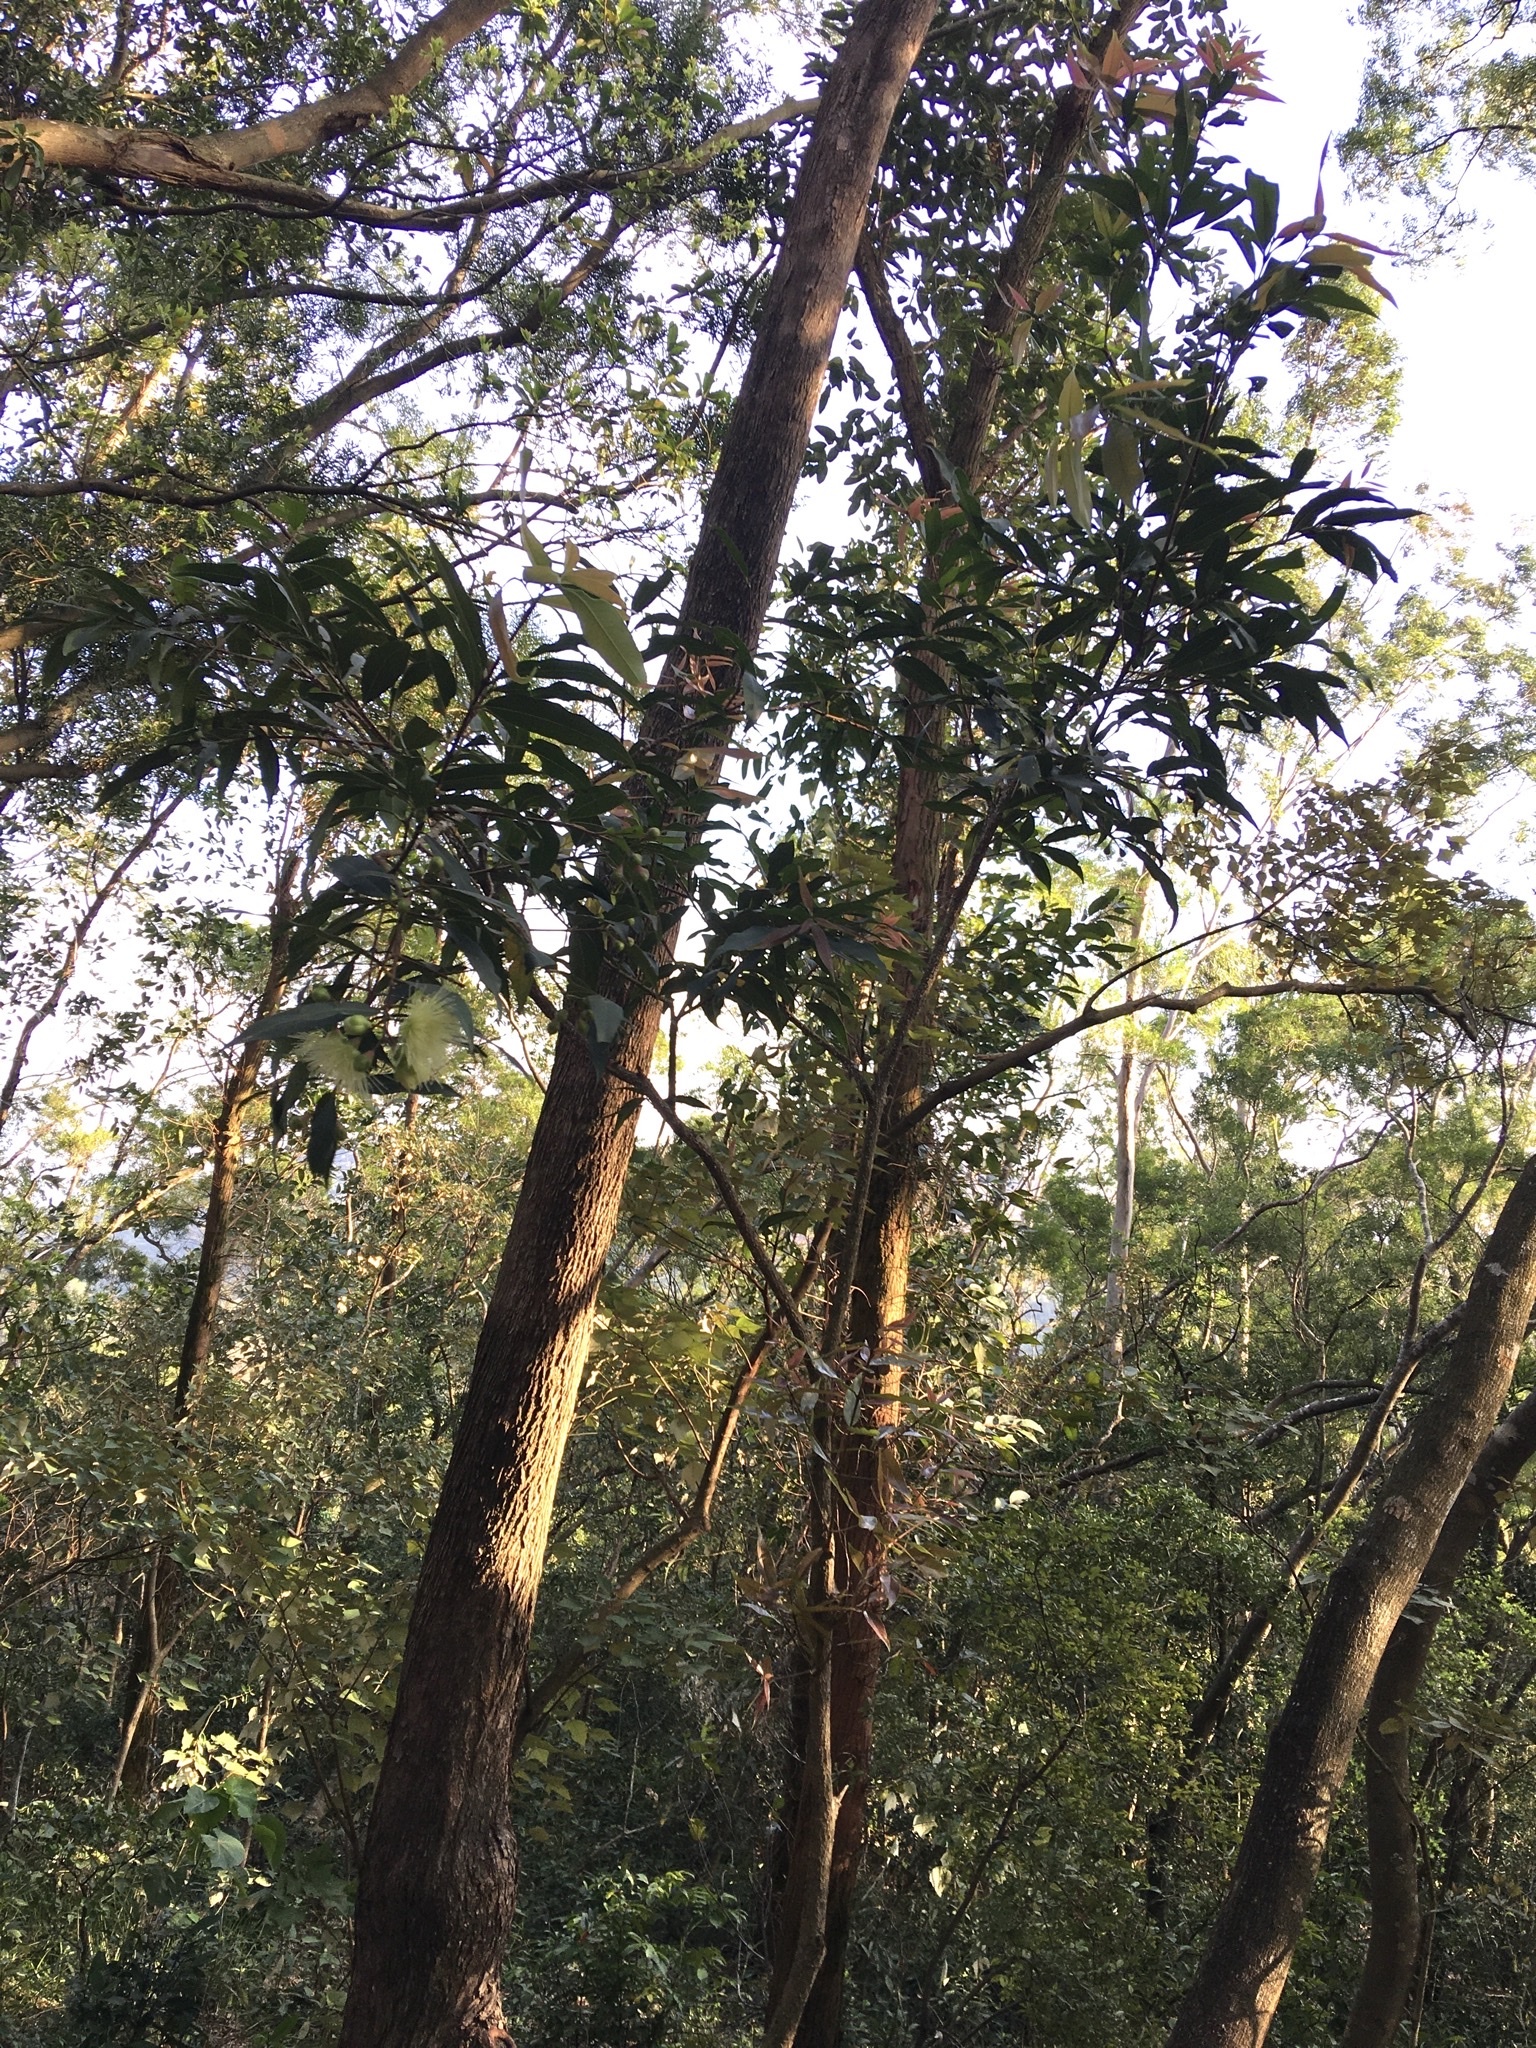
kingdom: Plantae
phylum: Tracheophyta
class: Magnoliopsida
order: Myrtales
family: Myrtaceae
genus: Syzygium
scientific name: Syzygium jambos
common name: Malabar plum
